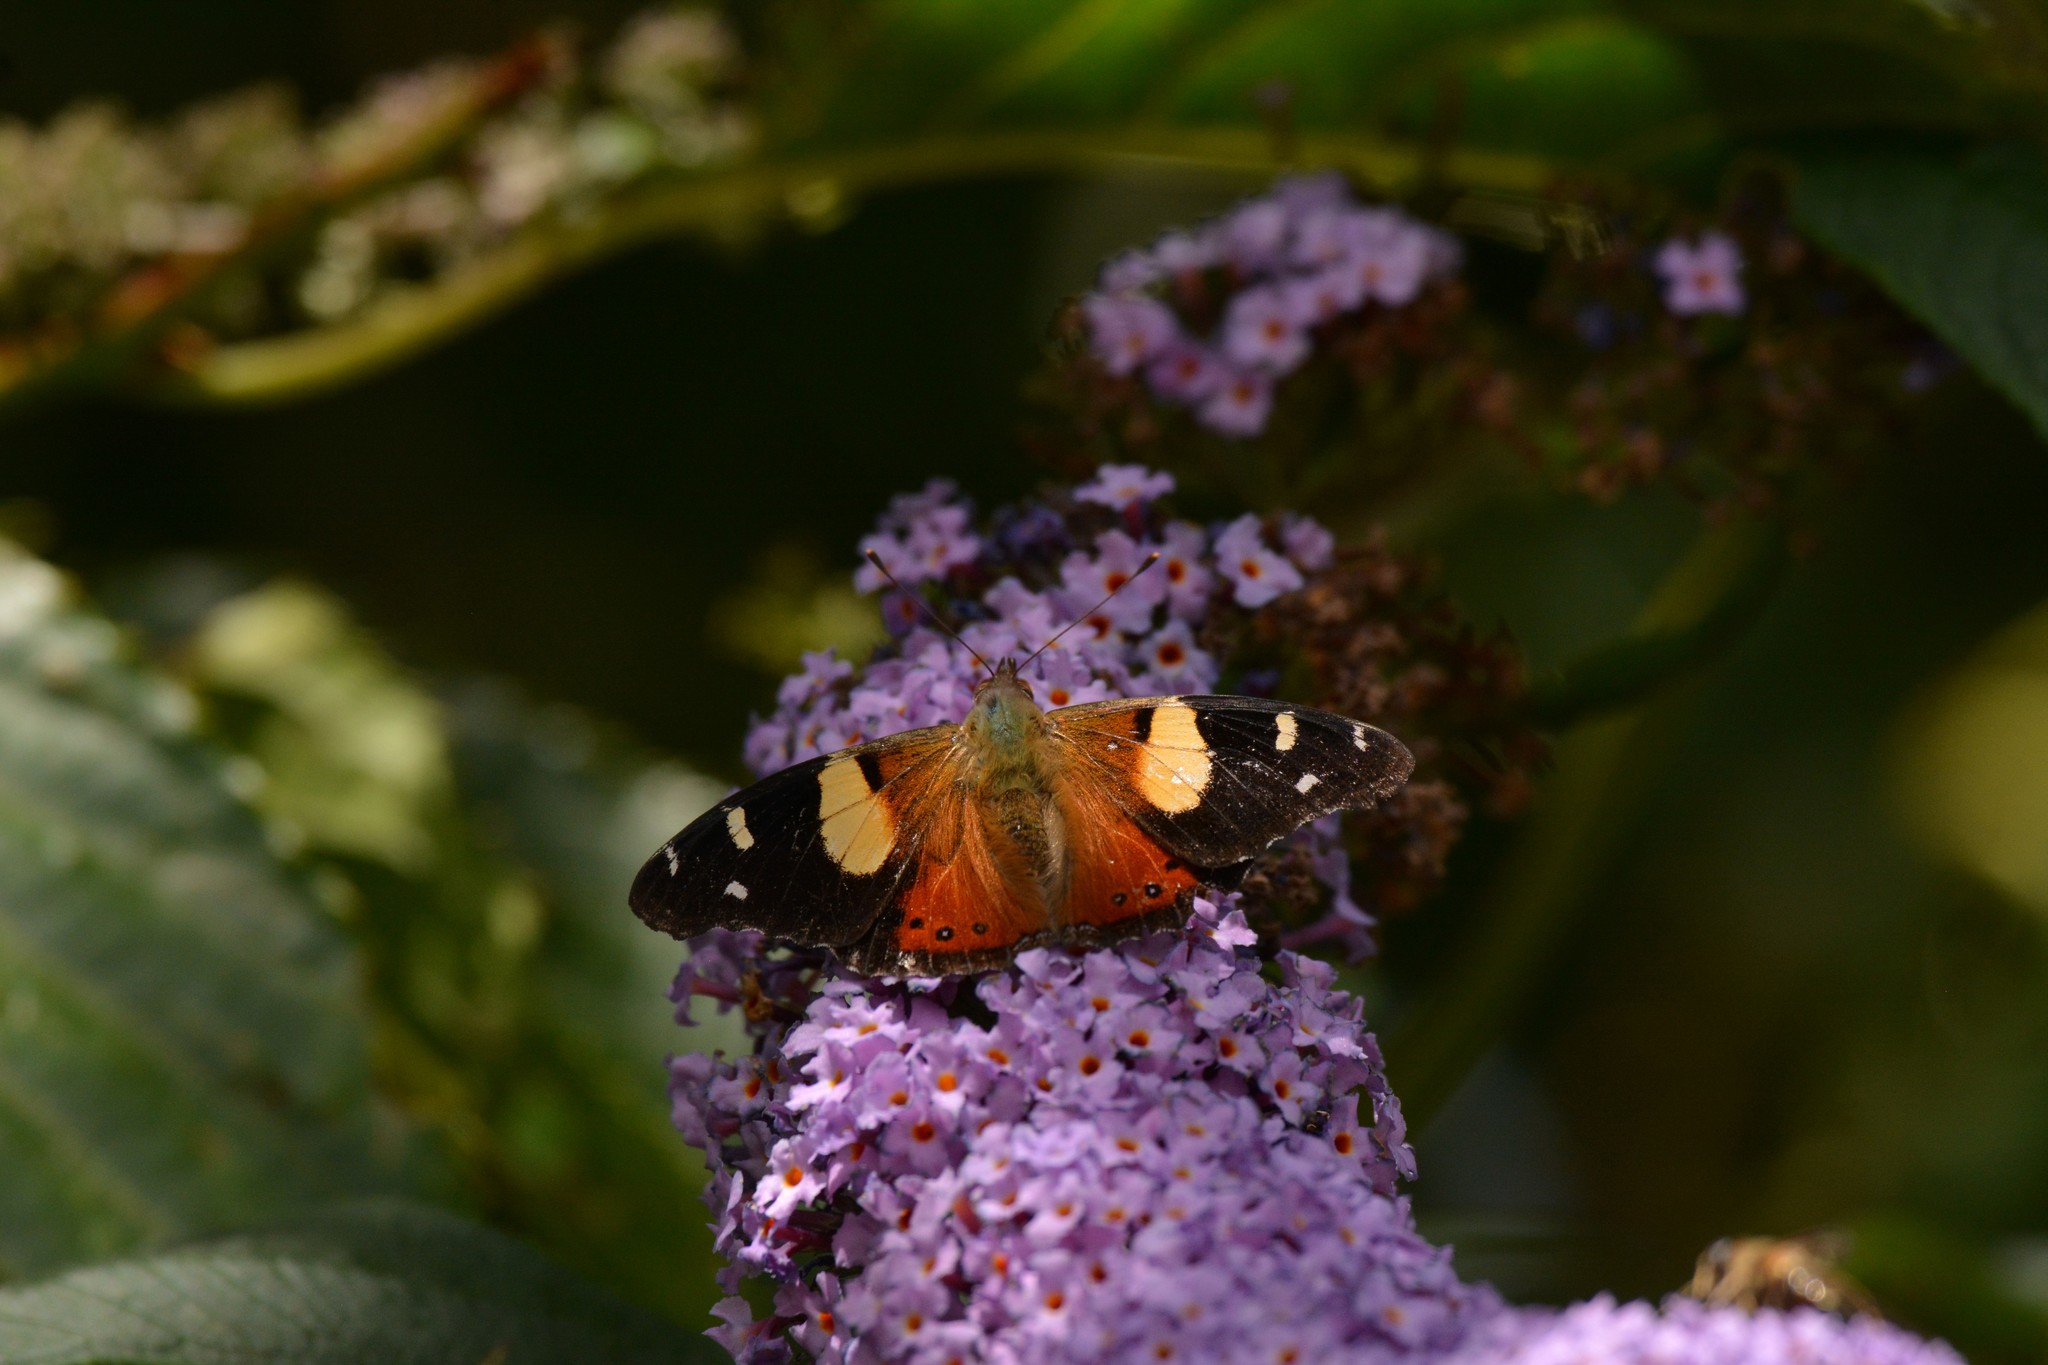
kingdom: Animalia
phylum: Arthropoda
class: Insecta
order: Lepidoptera
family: Nymphalidae
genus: Vanessa
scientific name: Vanessa itea
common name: Yellow admiral
